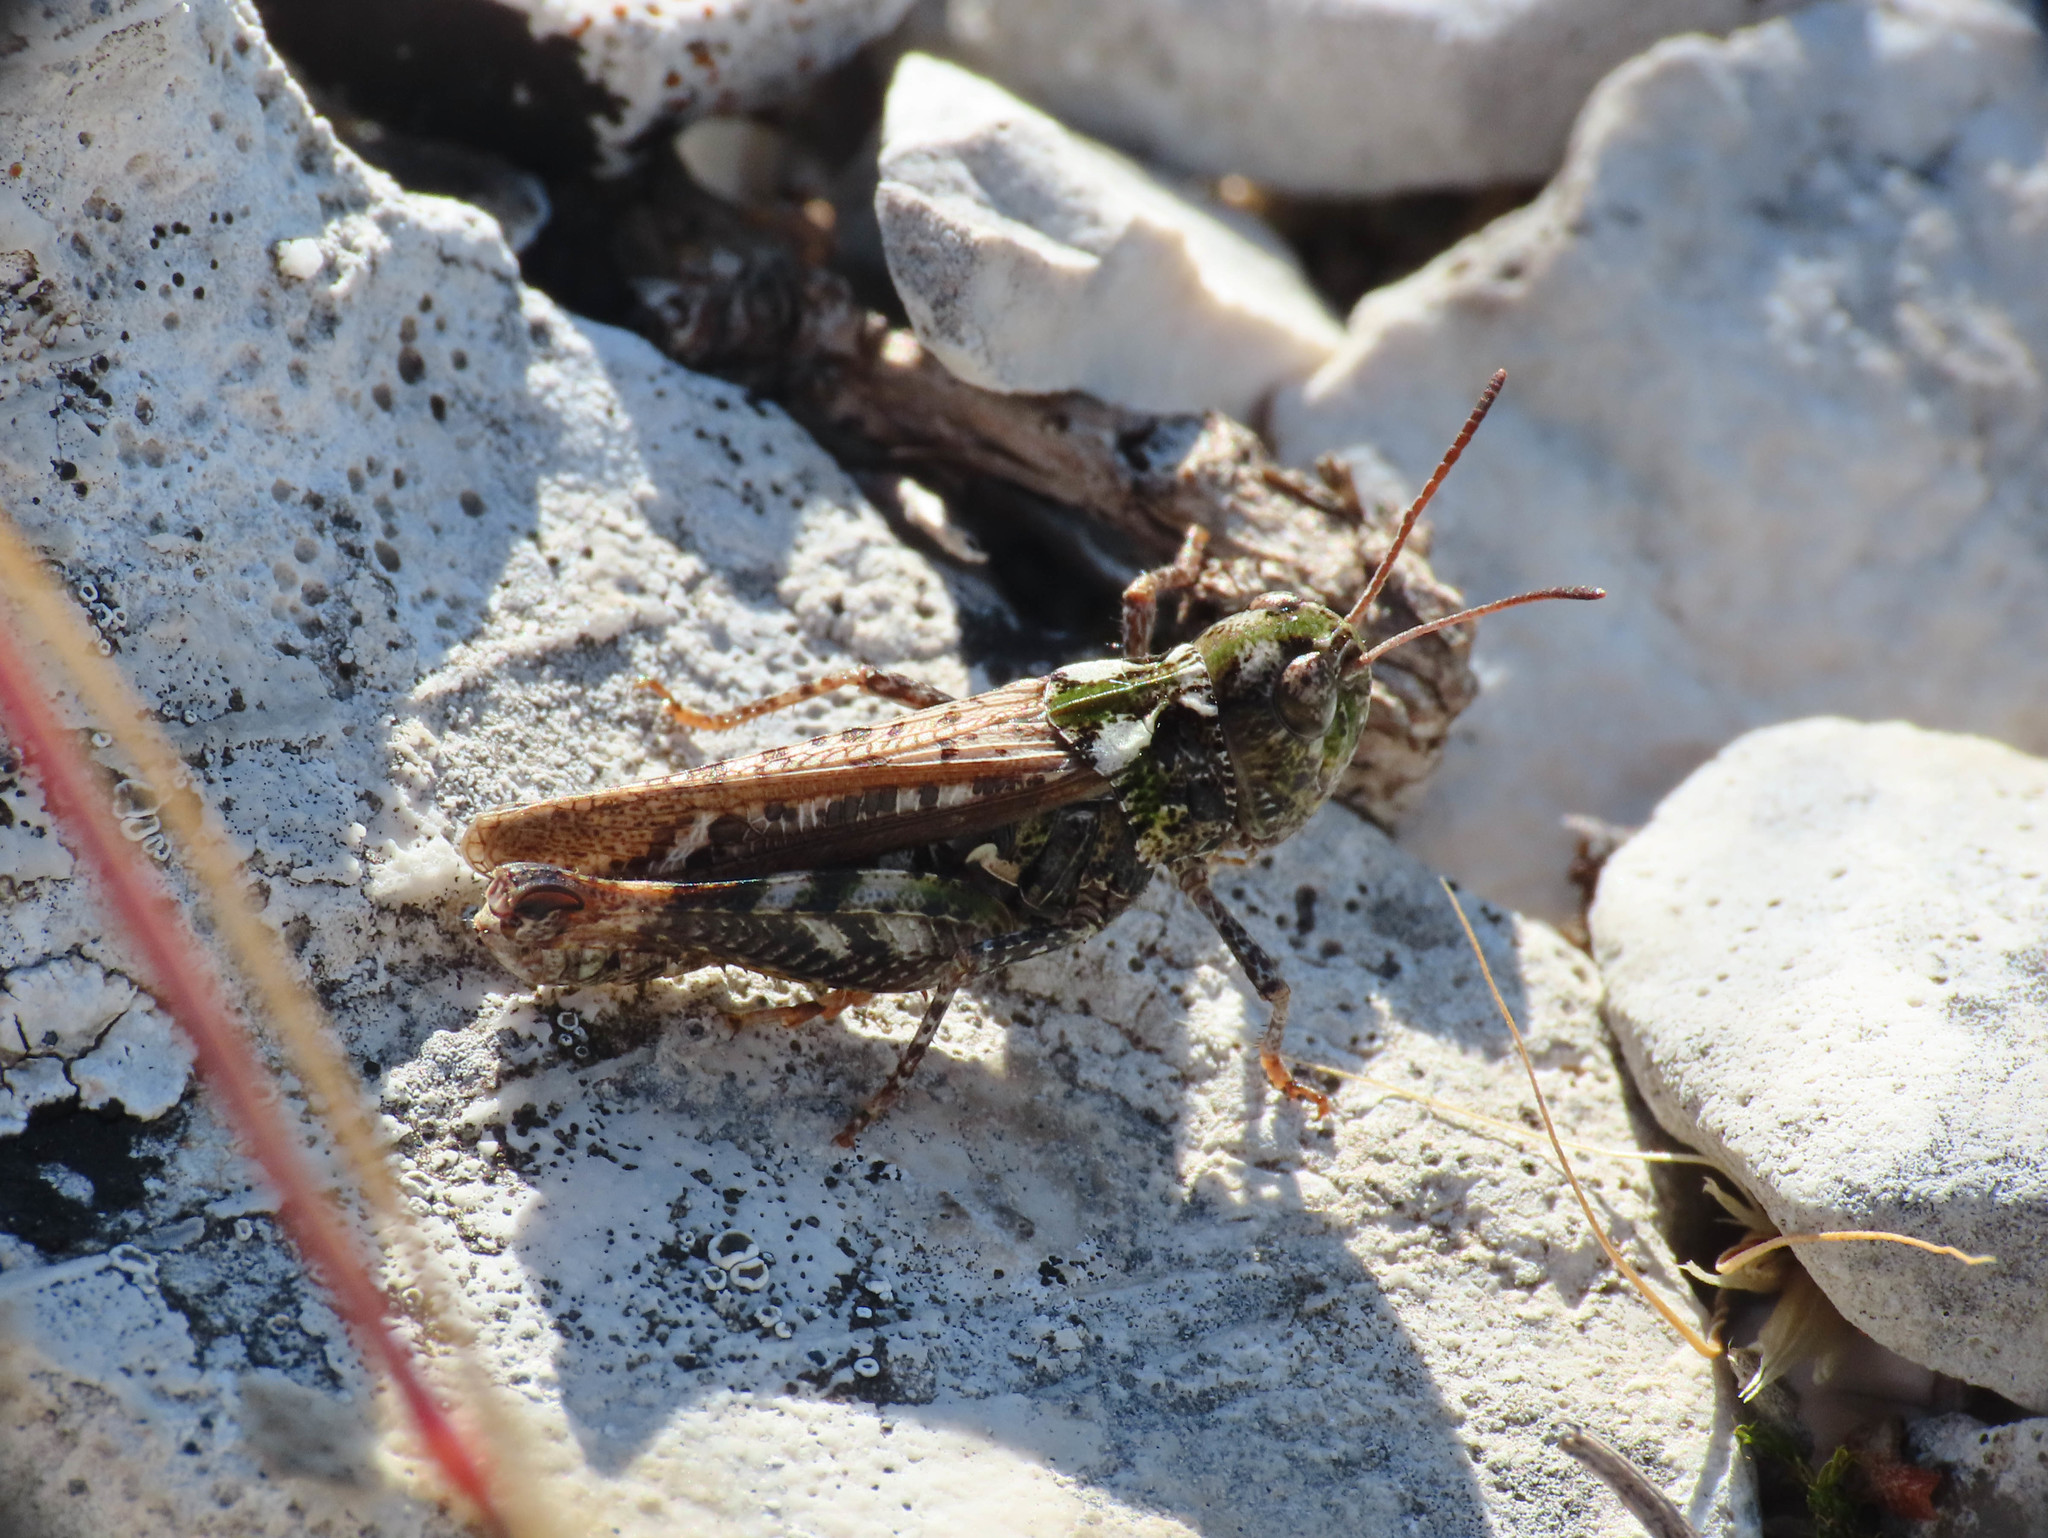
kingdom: Animalia
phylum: Arthropoda
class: Insecta
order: Orthoptera
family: Acrididae
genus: Myrmeleotettix
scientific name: Myrmeleotettix maculatus
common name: Mottled grasshopper
